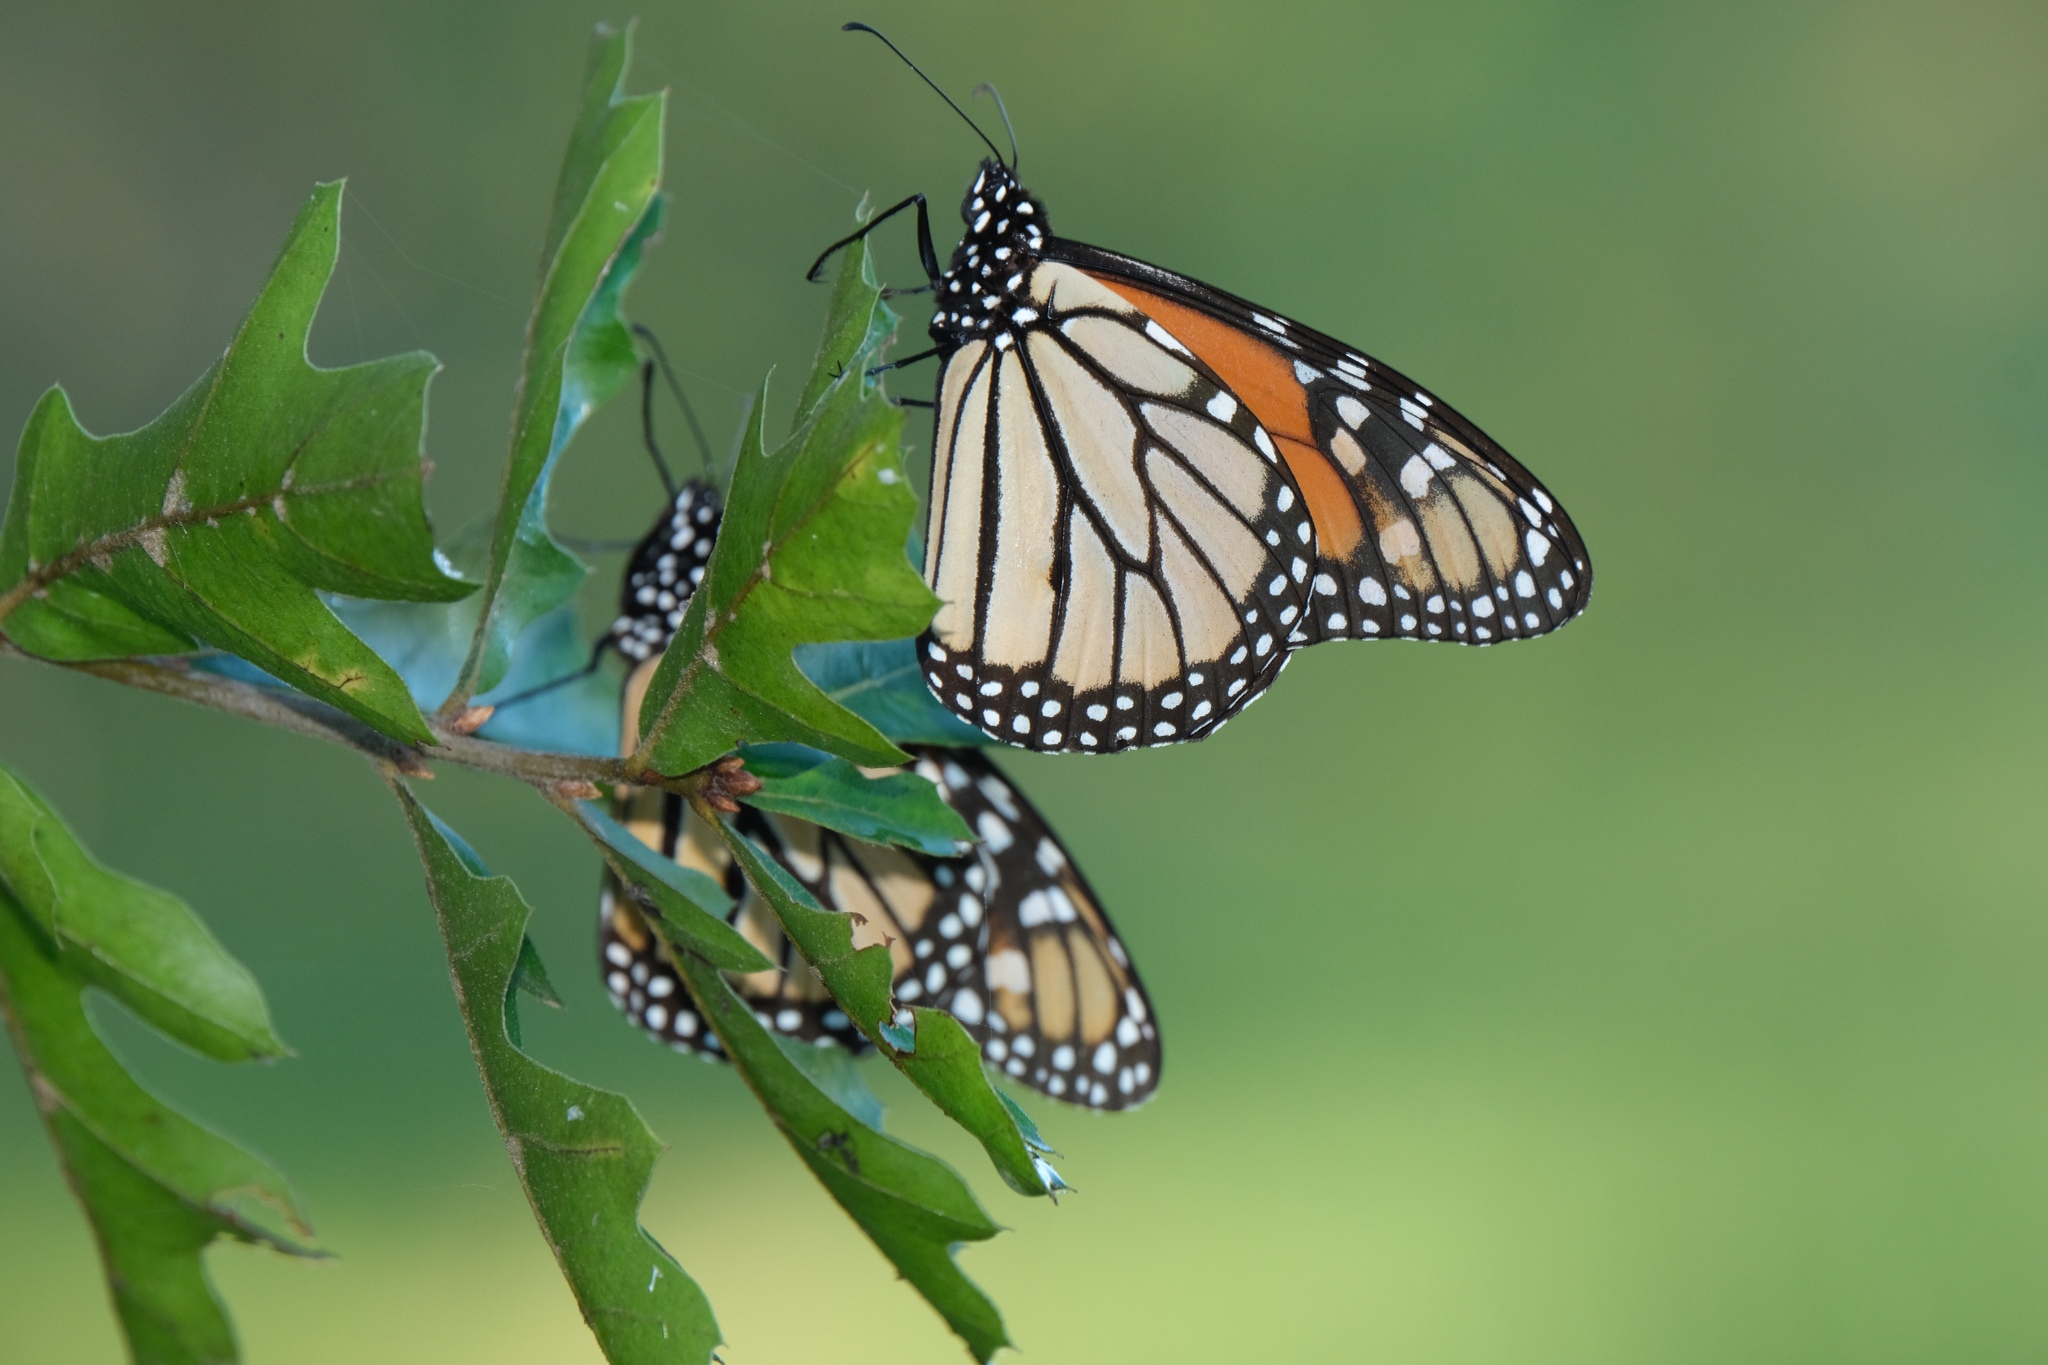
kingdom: Animalia
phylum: Arthropoda
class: Insecta
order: Lepidoptera
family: Nymphalidae
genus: Danaus
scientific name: Danaus plexippus
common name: Monarch
